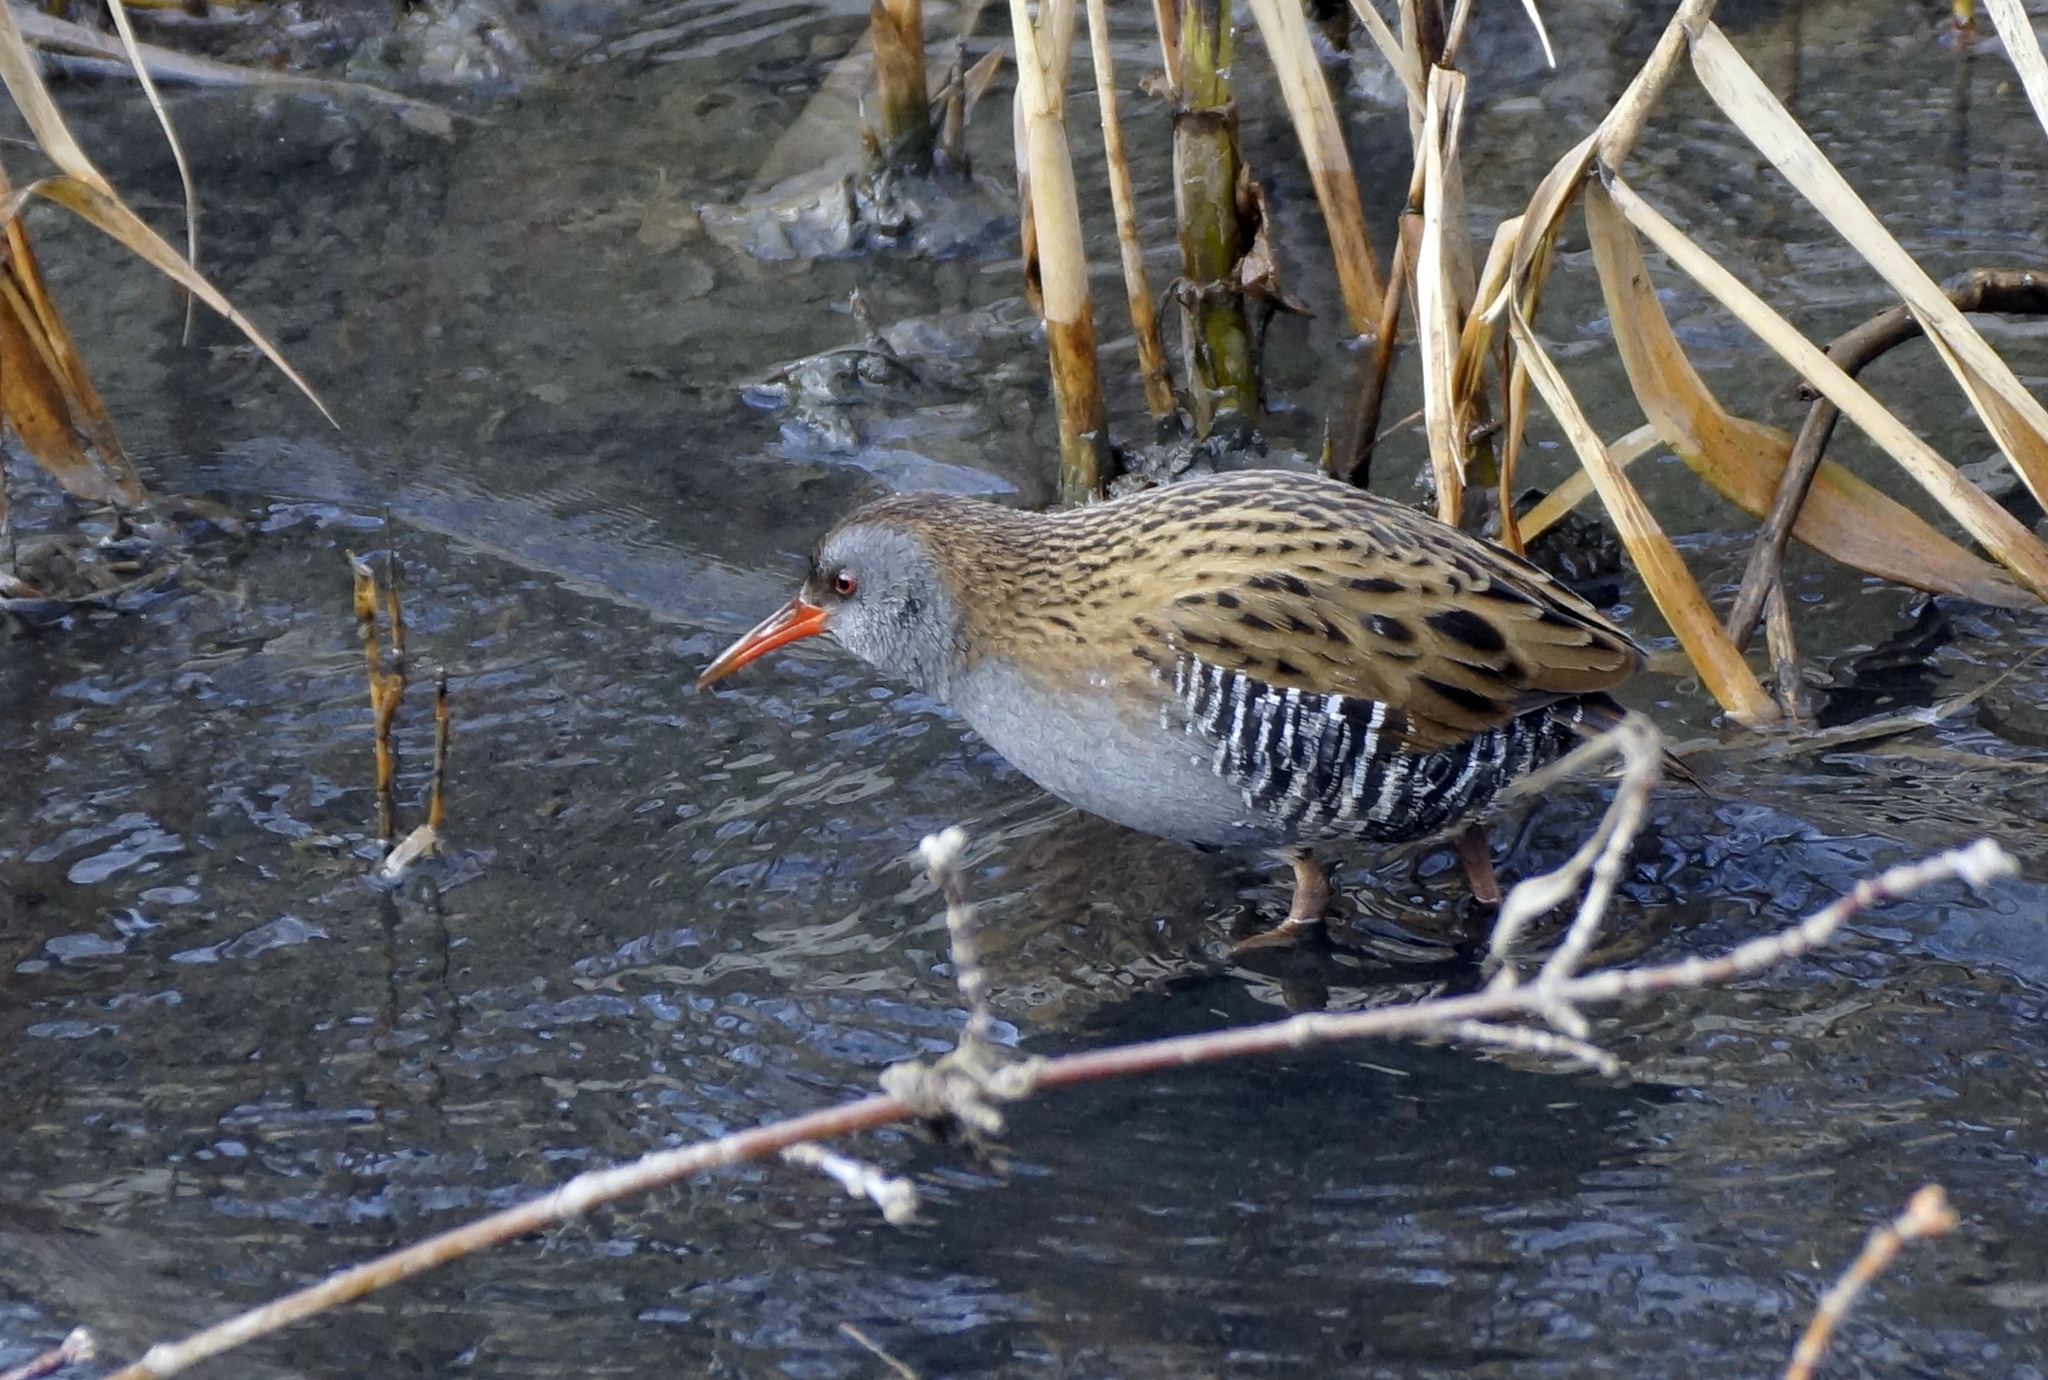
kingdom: Animalia
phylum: Chordata
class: Aves
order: Gruiformes
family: Rallidae
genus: Rallus
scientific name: Rallus aquaticus
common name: Water rail
